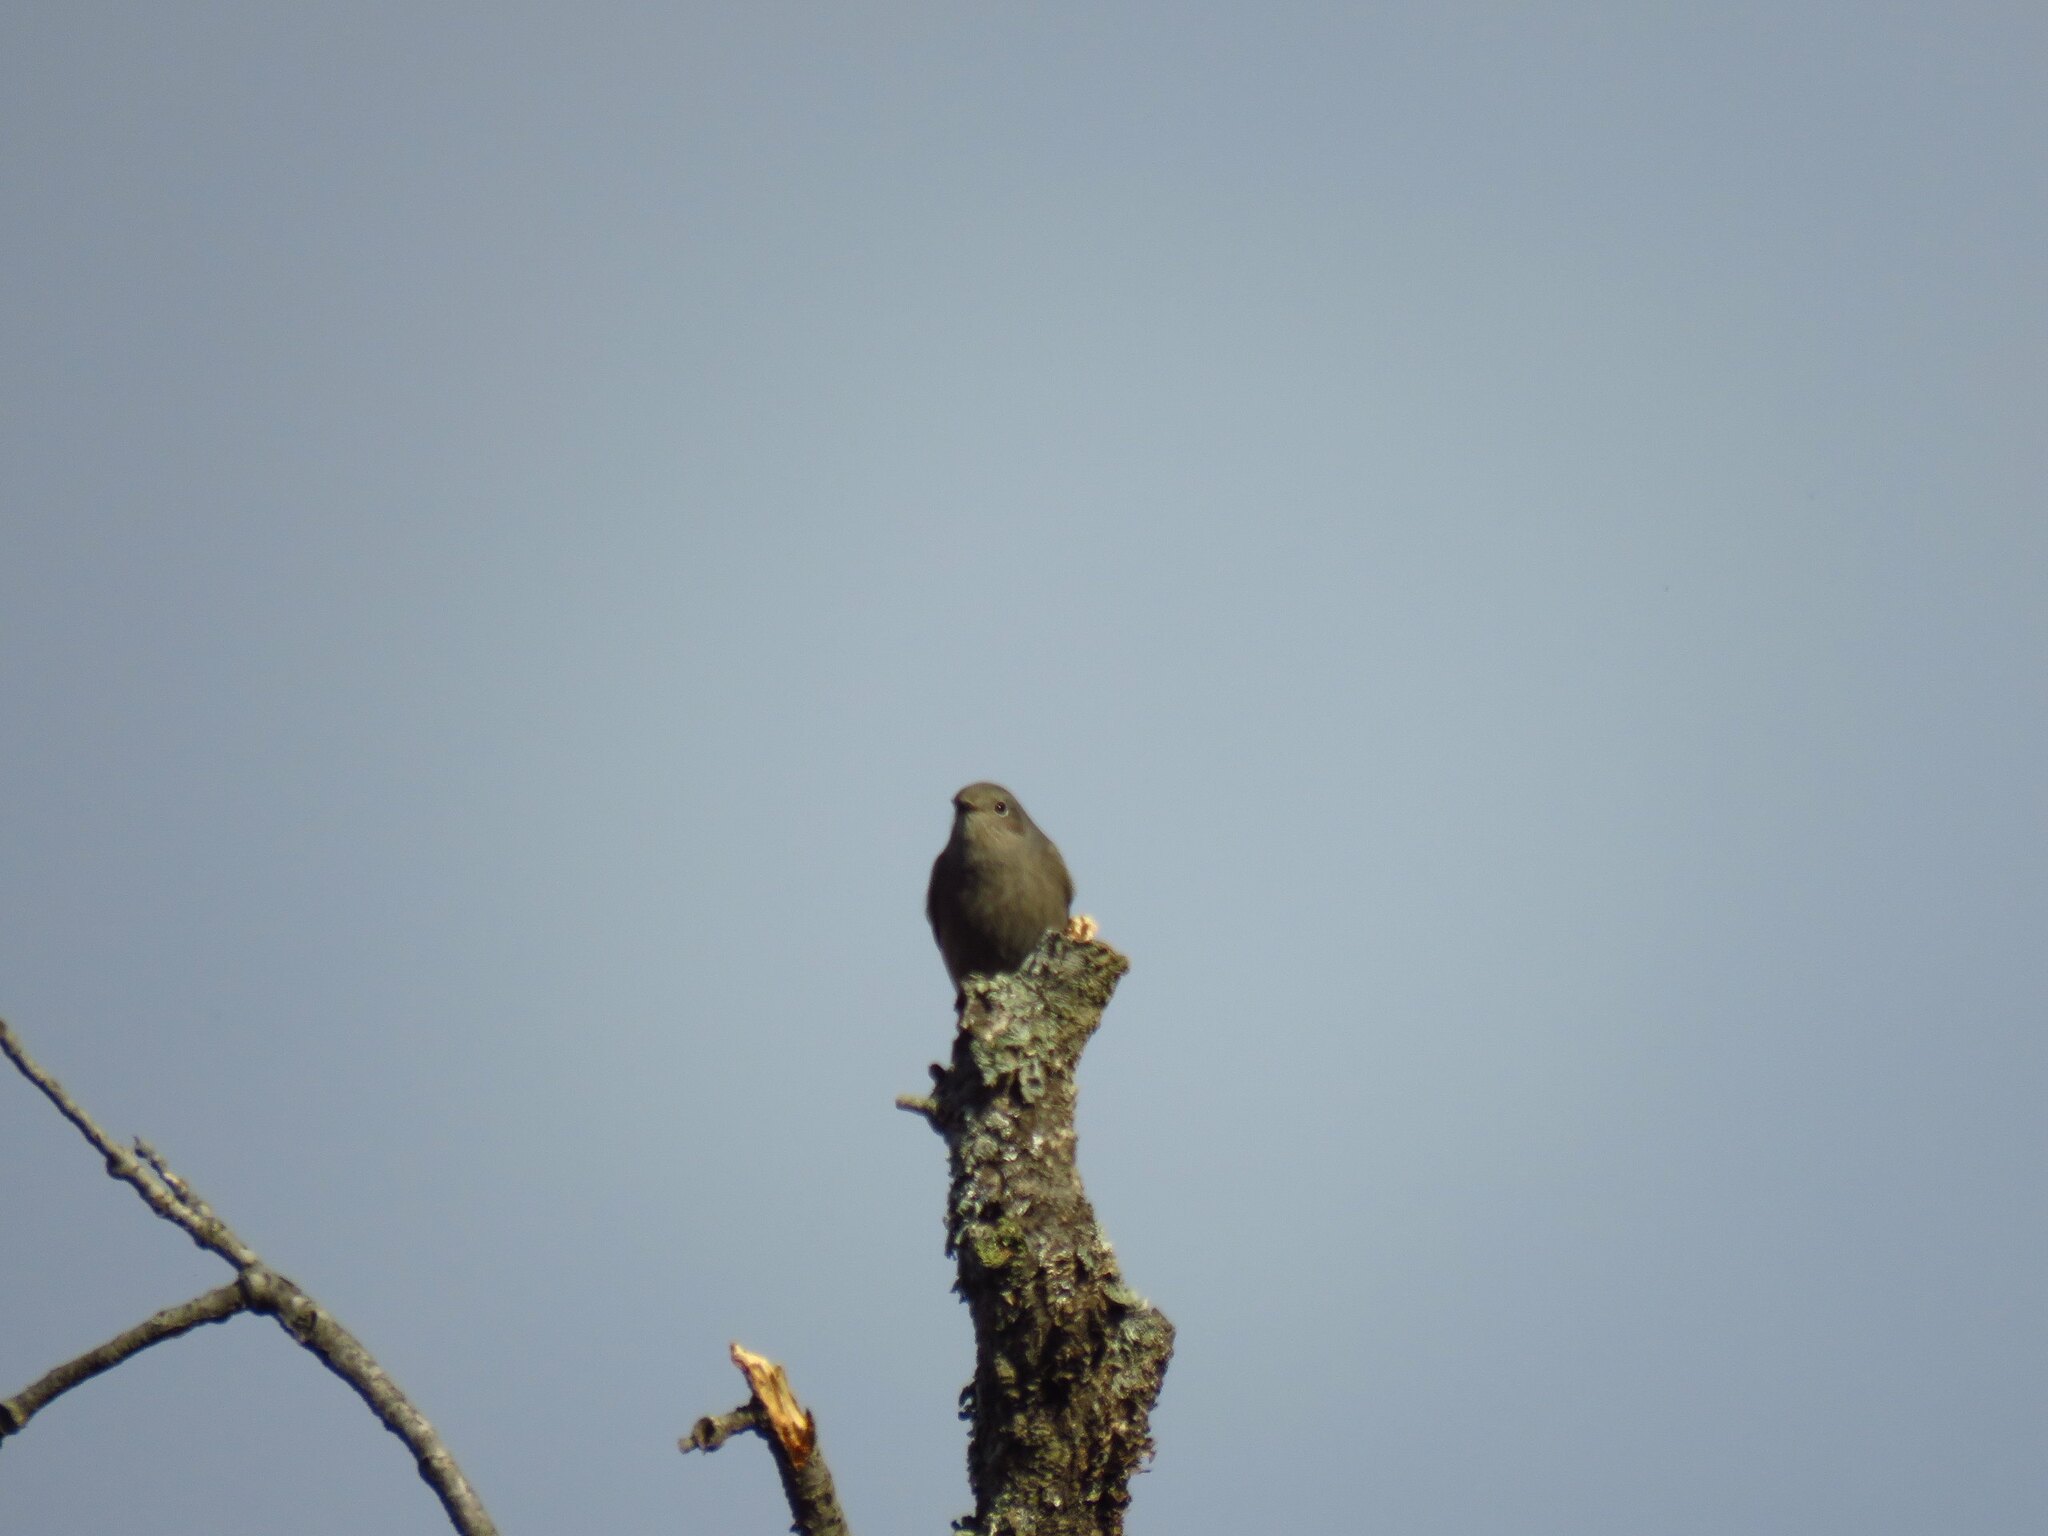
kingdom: Animalia
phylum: Chordata
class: Aves
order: Passeriformes
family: Muscicapidae
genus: Phoenicurus
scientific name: Phoenicurus ochruros
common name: Black redstart
